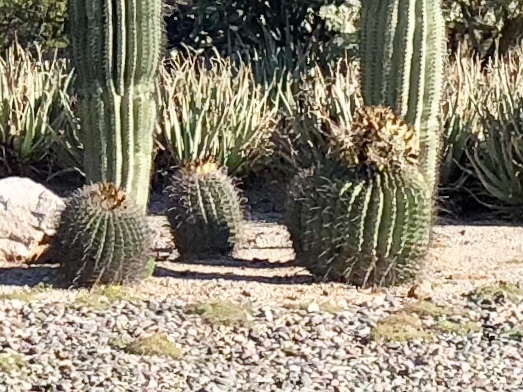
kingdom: Plantae
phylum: Tracheophyta
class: Magnoliopsida
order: Caryophyllales
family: Cactaceae
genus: Ferocactus
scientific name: Ferocactus wislizeni
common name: Candy barrel cactus
